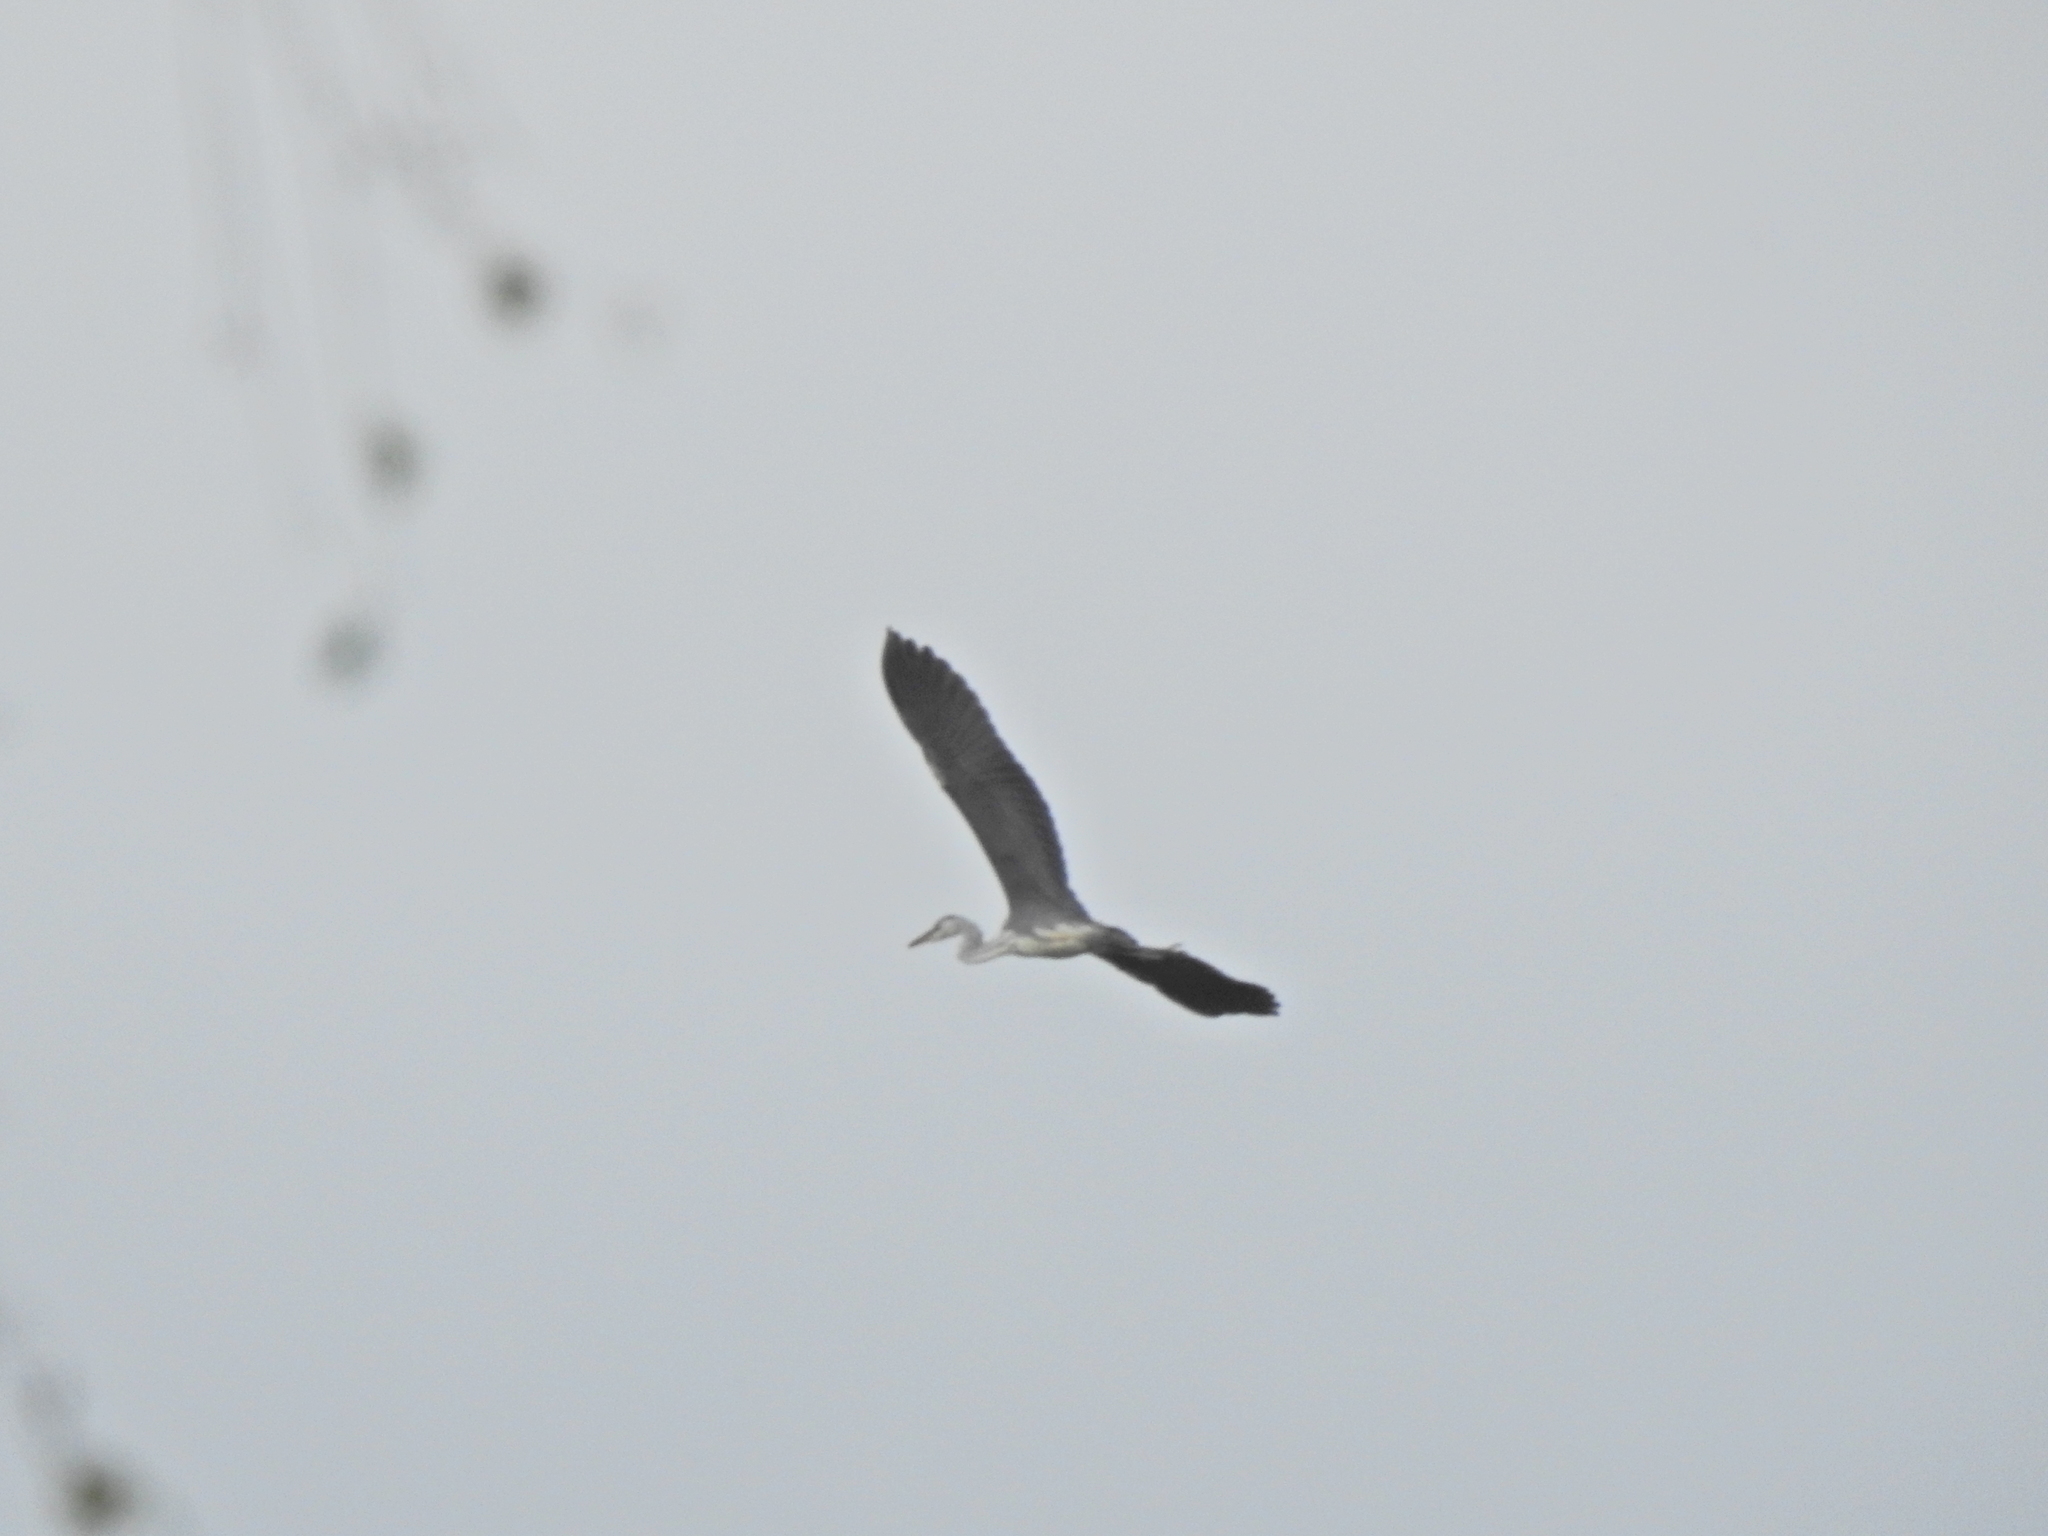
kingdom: Animalia
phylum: Chordata
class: Aves
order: Pelecaniformes
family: Ardeidae
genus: Ardea
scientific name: Ardea cinerea
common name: Grey heron
